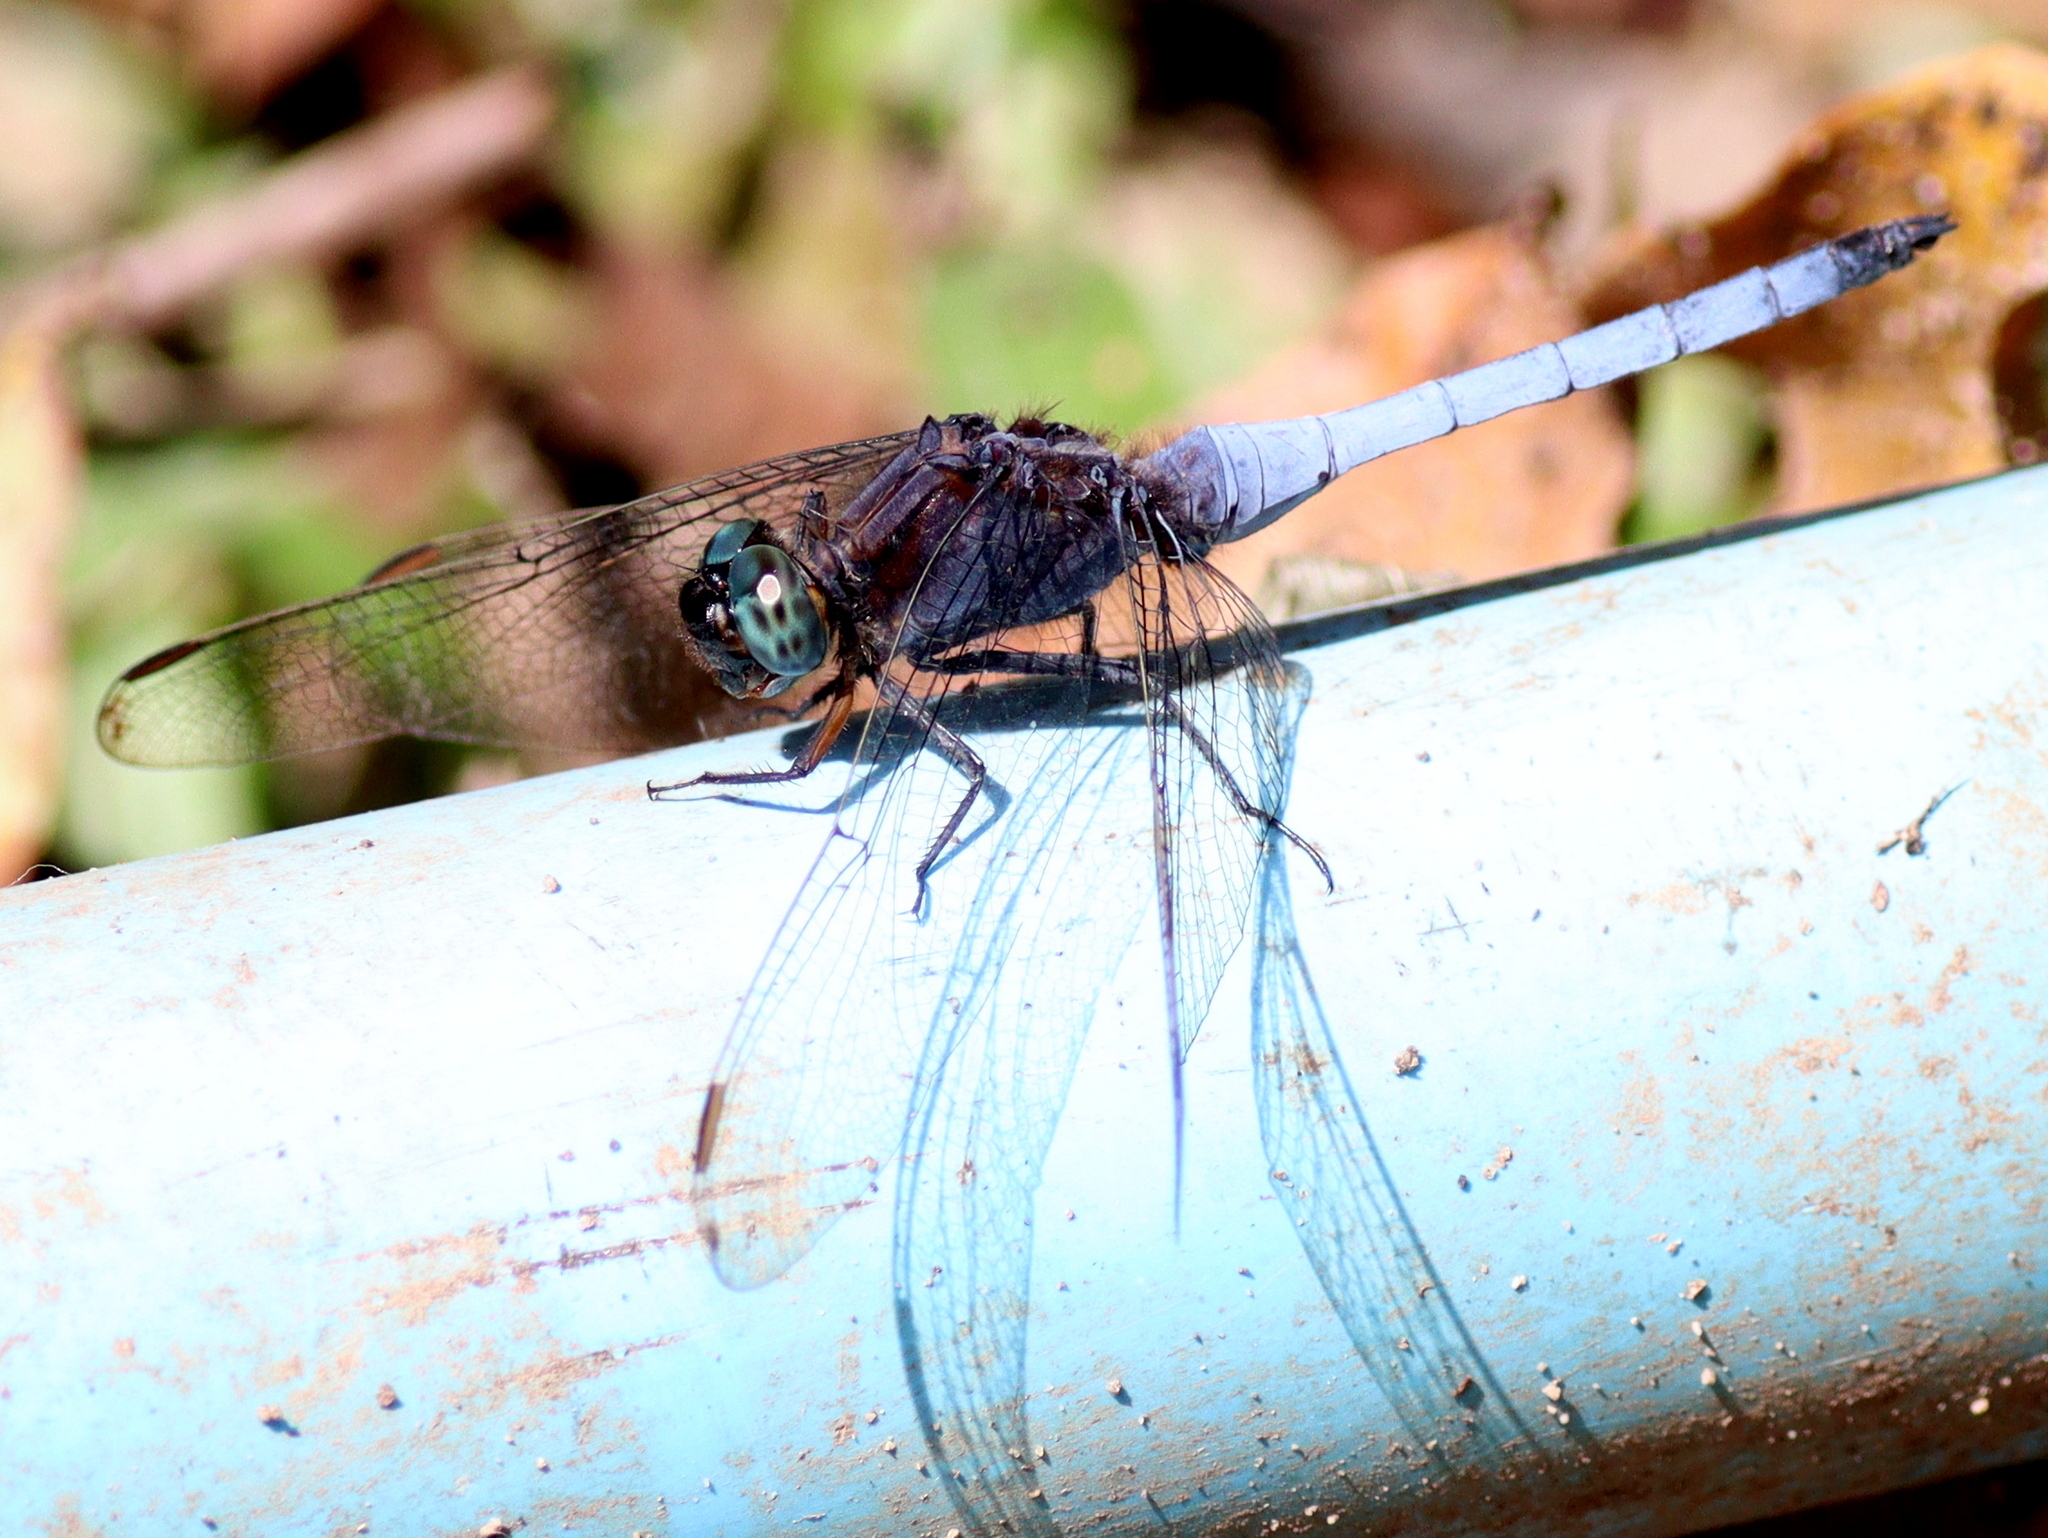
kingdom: Animalia
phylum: Arthropoda
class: Insecta
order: Odonata
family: Libellulidae
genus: Orthetrum
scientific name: Orthetrum glaucum
